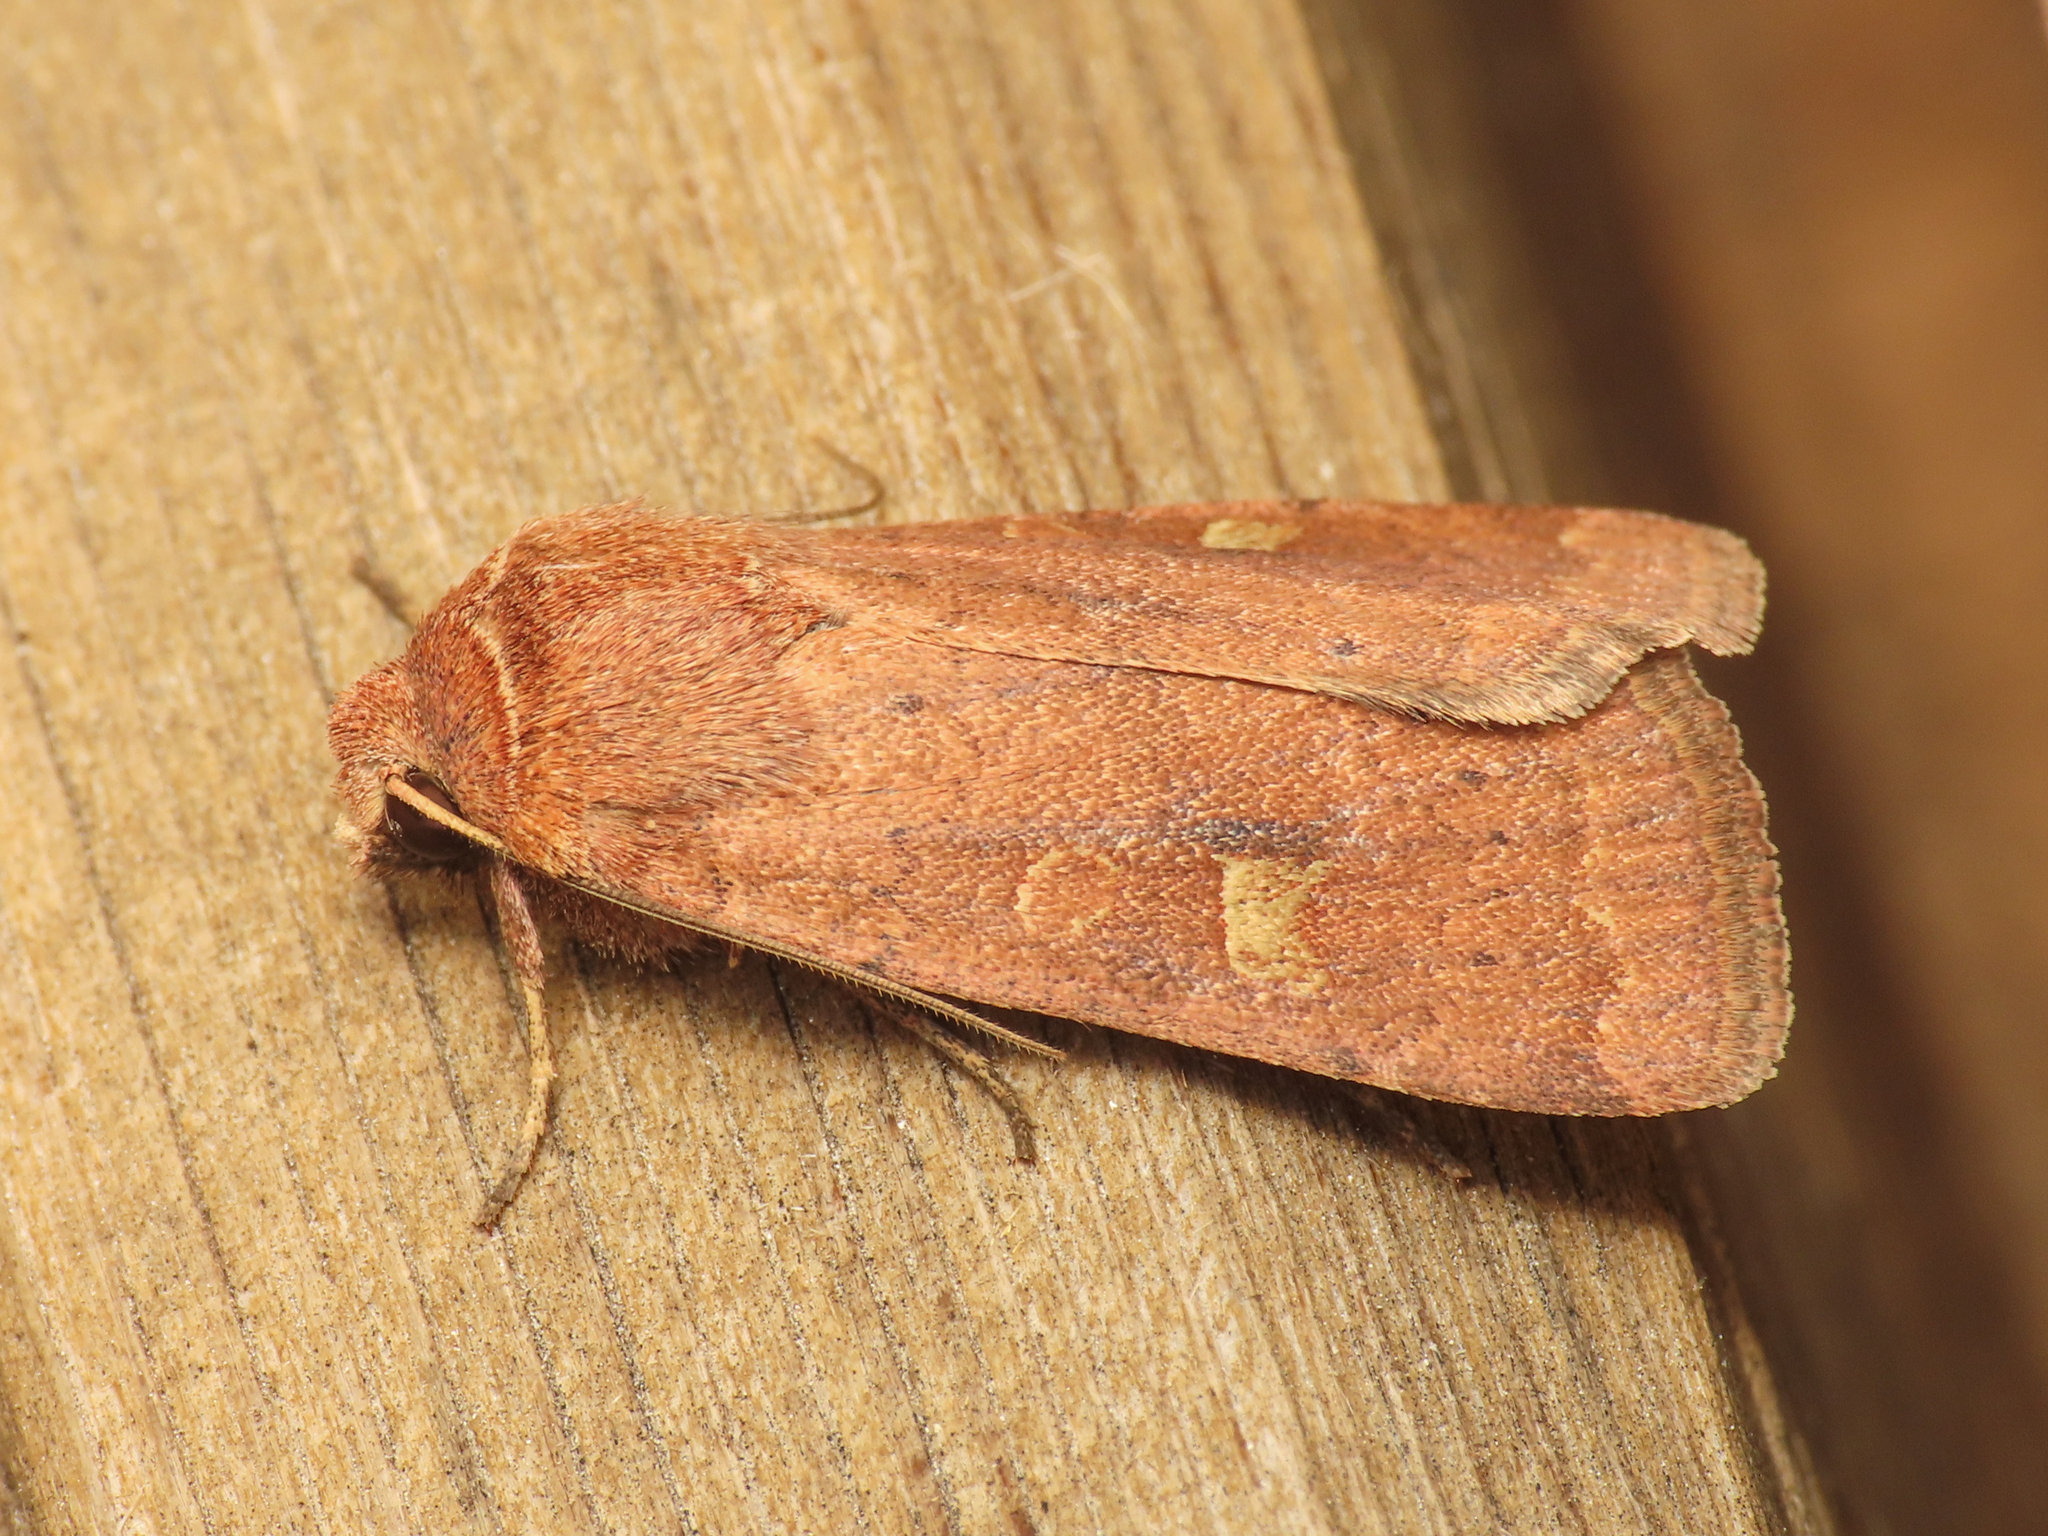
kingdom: Animalia
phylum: Arthropoda
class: Insecta
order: Lepidoptera
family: Noctuidae
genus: Xestia
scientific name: Xestia xanthographa
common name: Square-spot rustic
